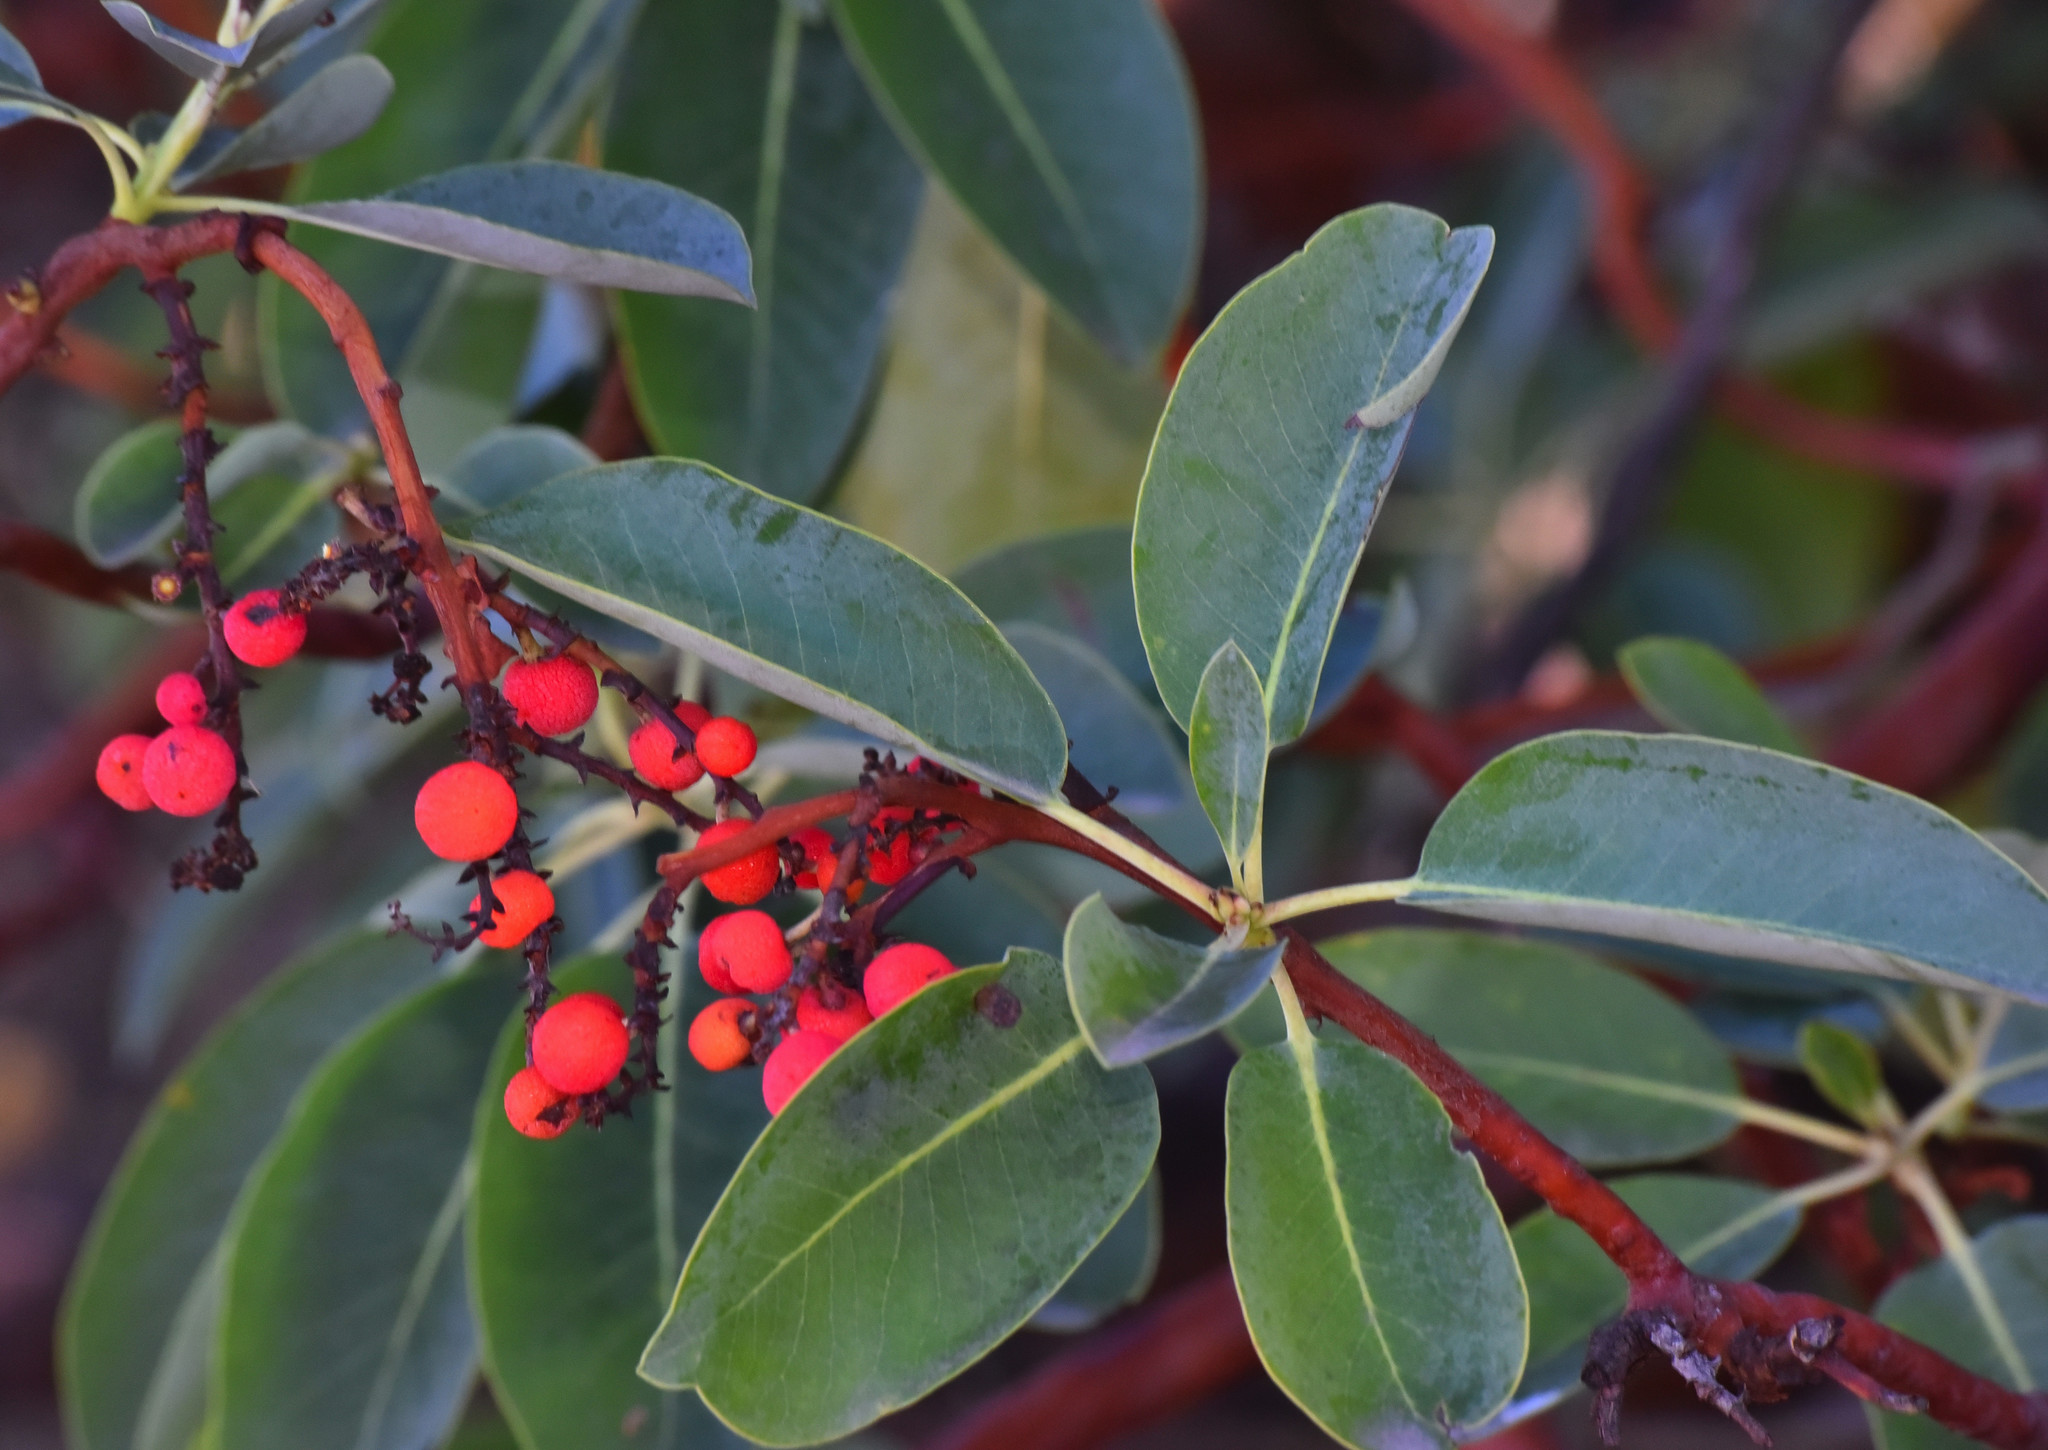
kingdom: Plantae
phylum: Tracheophyta
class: Magnoliopsida
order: Ericales
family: Ericaceae
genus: Arbutus
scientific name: Arbutus menziesii
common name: Pacific madrone
